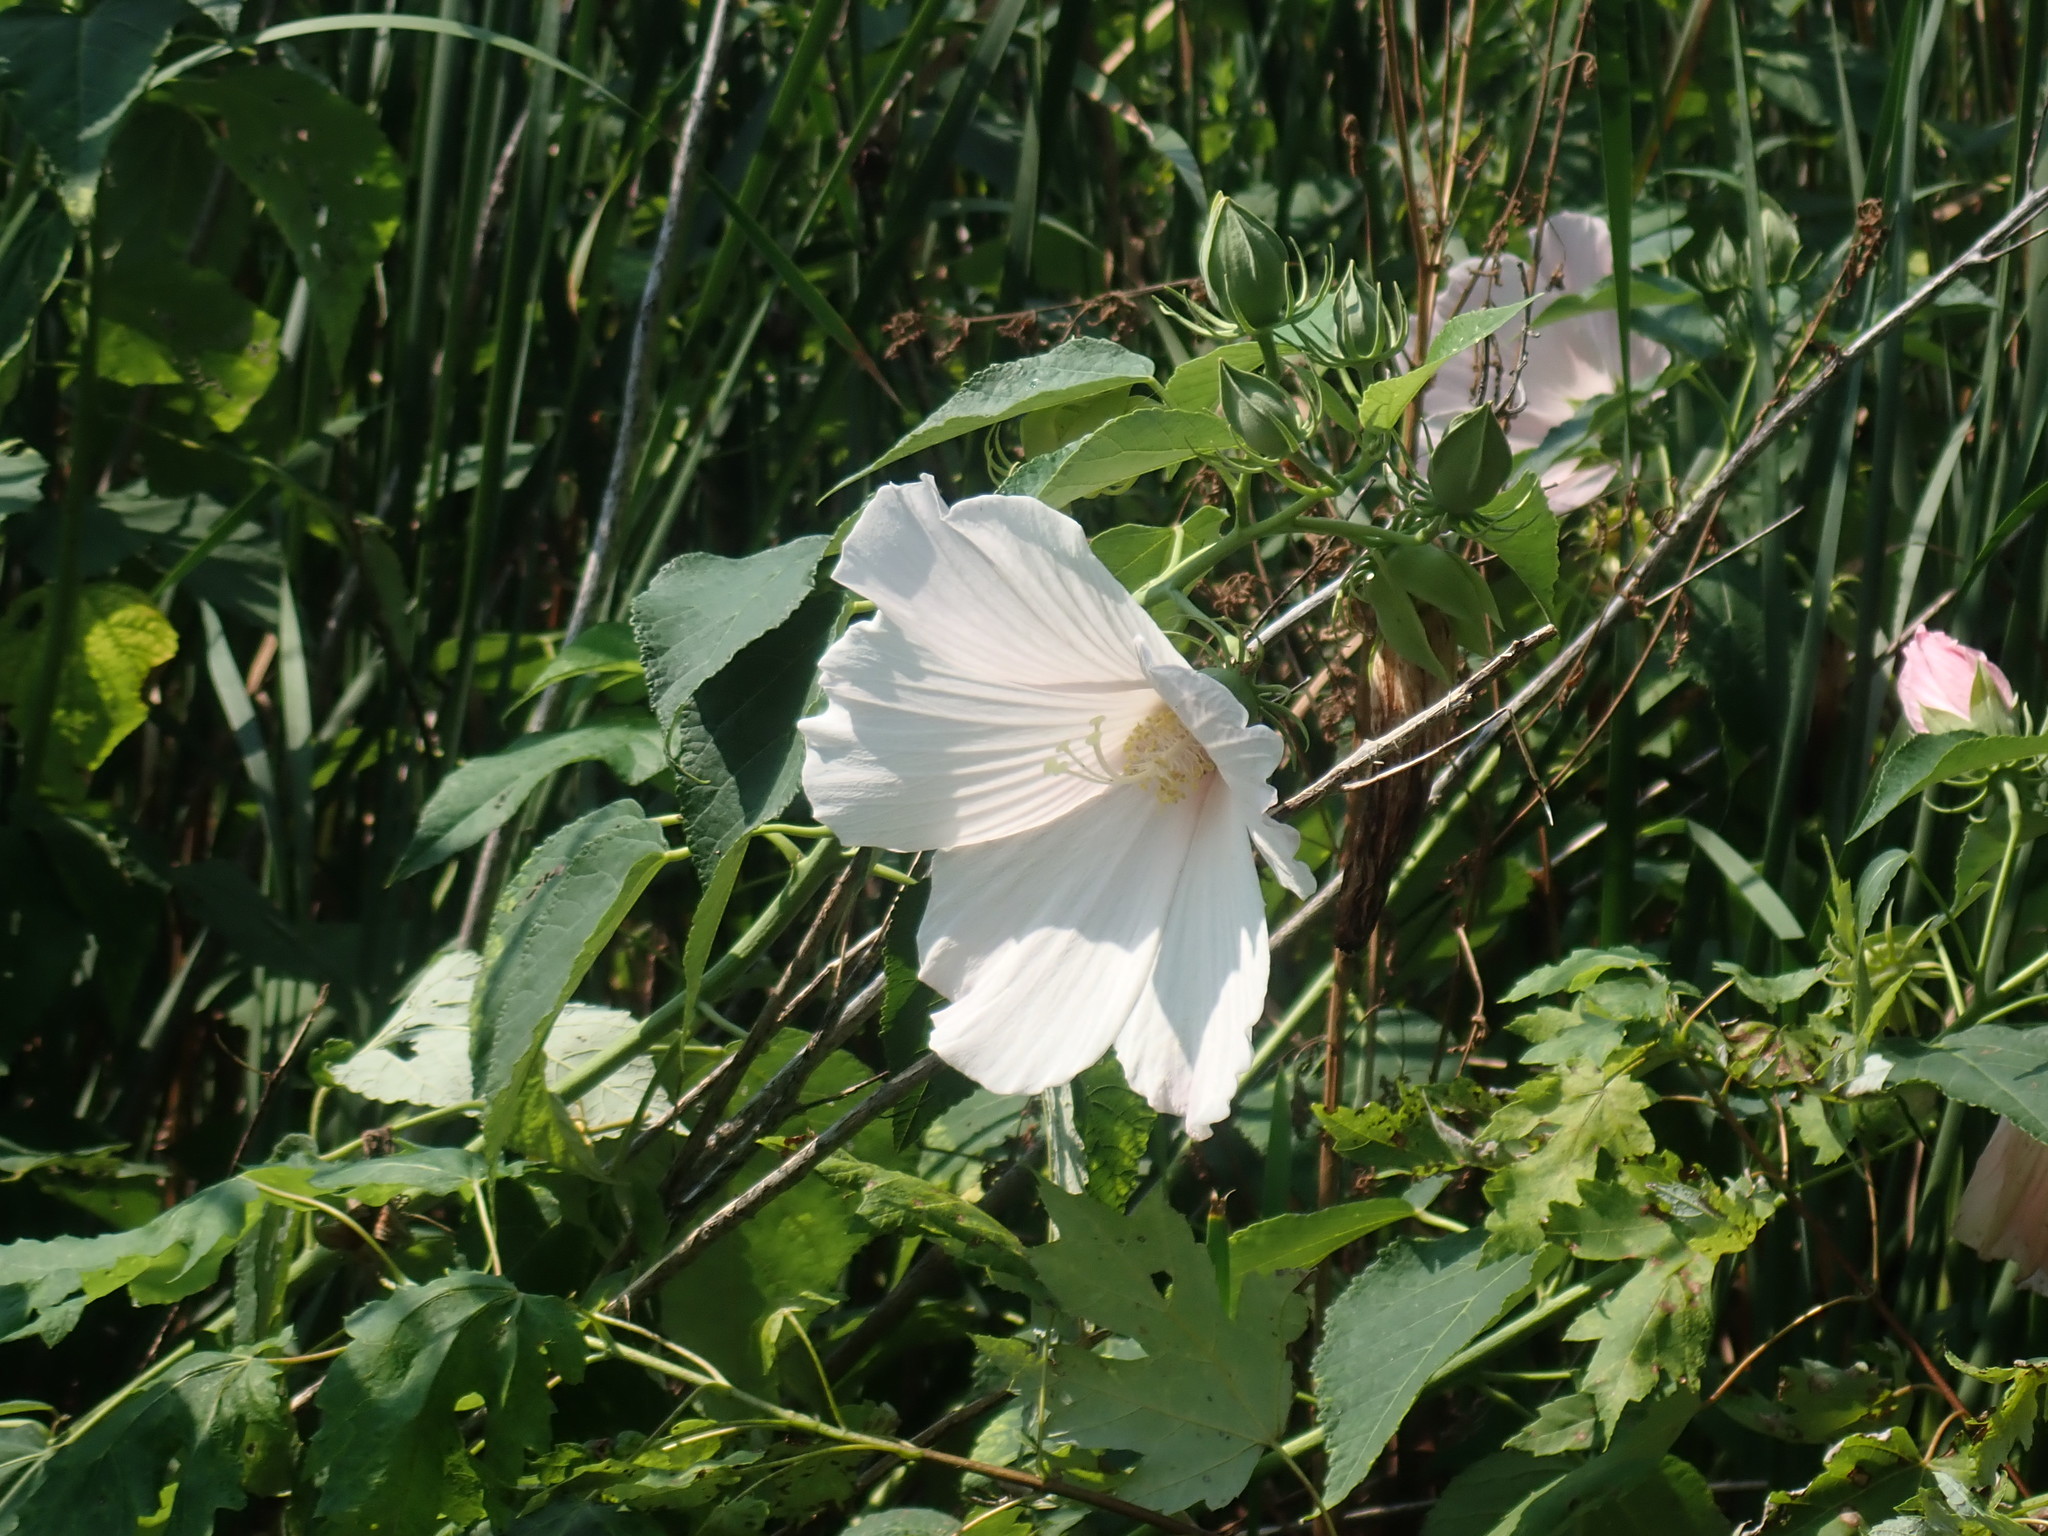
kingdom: Plantae
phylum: Tracheophyta
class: Magnoliopsida
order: Malvales
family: Malvaceae
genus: Hibiscus
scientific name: Hibiscus moscheutos
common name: Common rose-mallow
